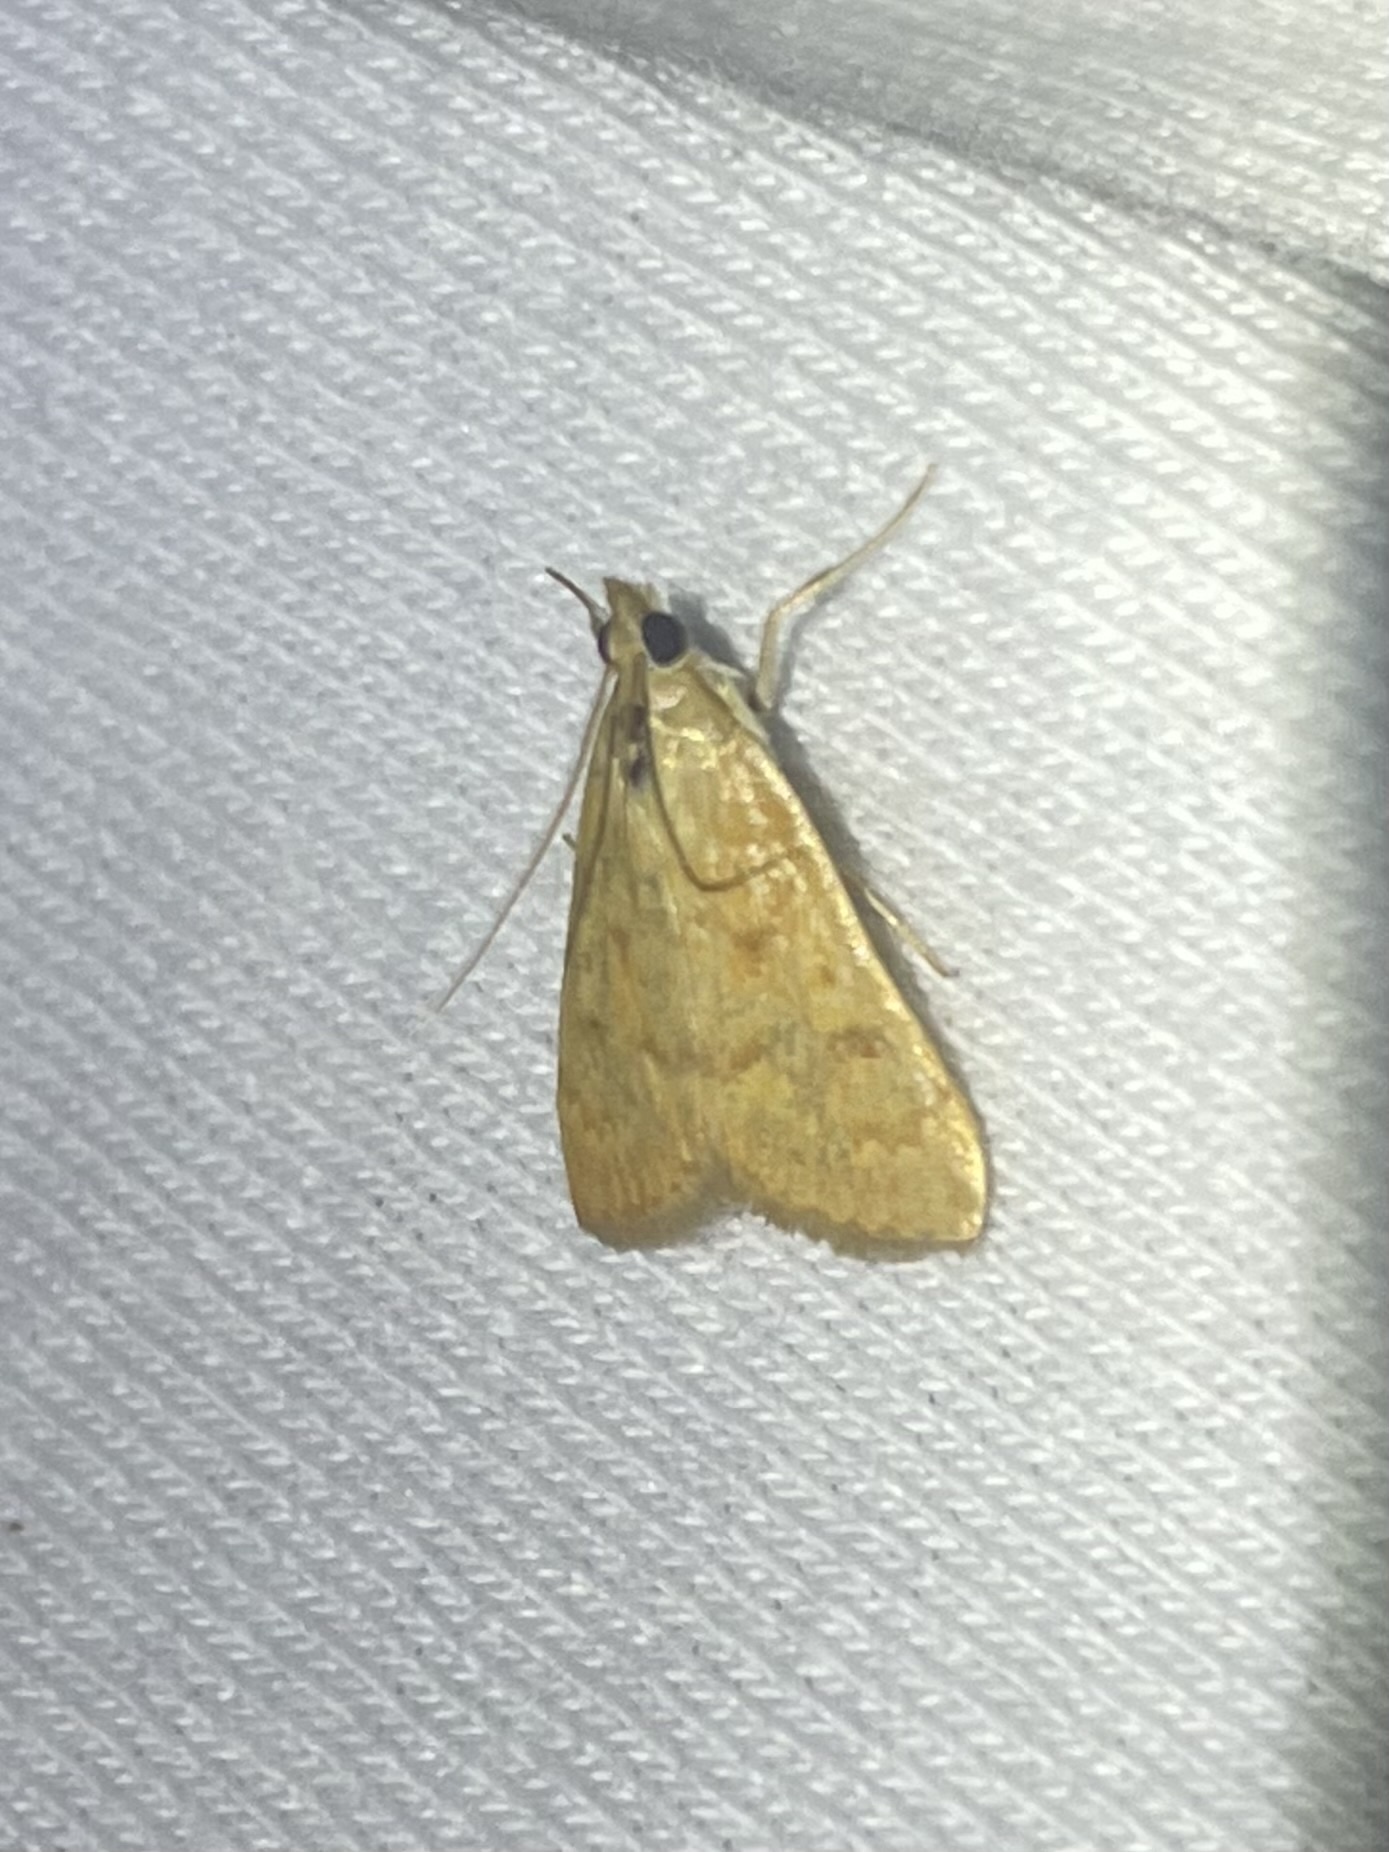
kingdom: Animalia
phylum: Arthropoda
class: Insecta
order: Lepidoptera
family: Crambidae
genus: Achyra
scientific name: Achyra rantalis
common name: Garden webworm
